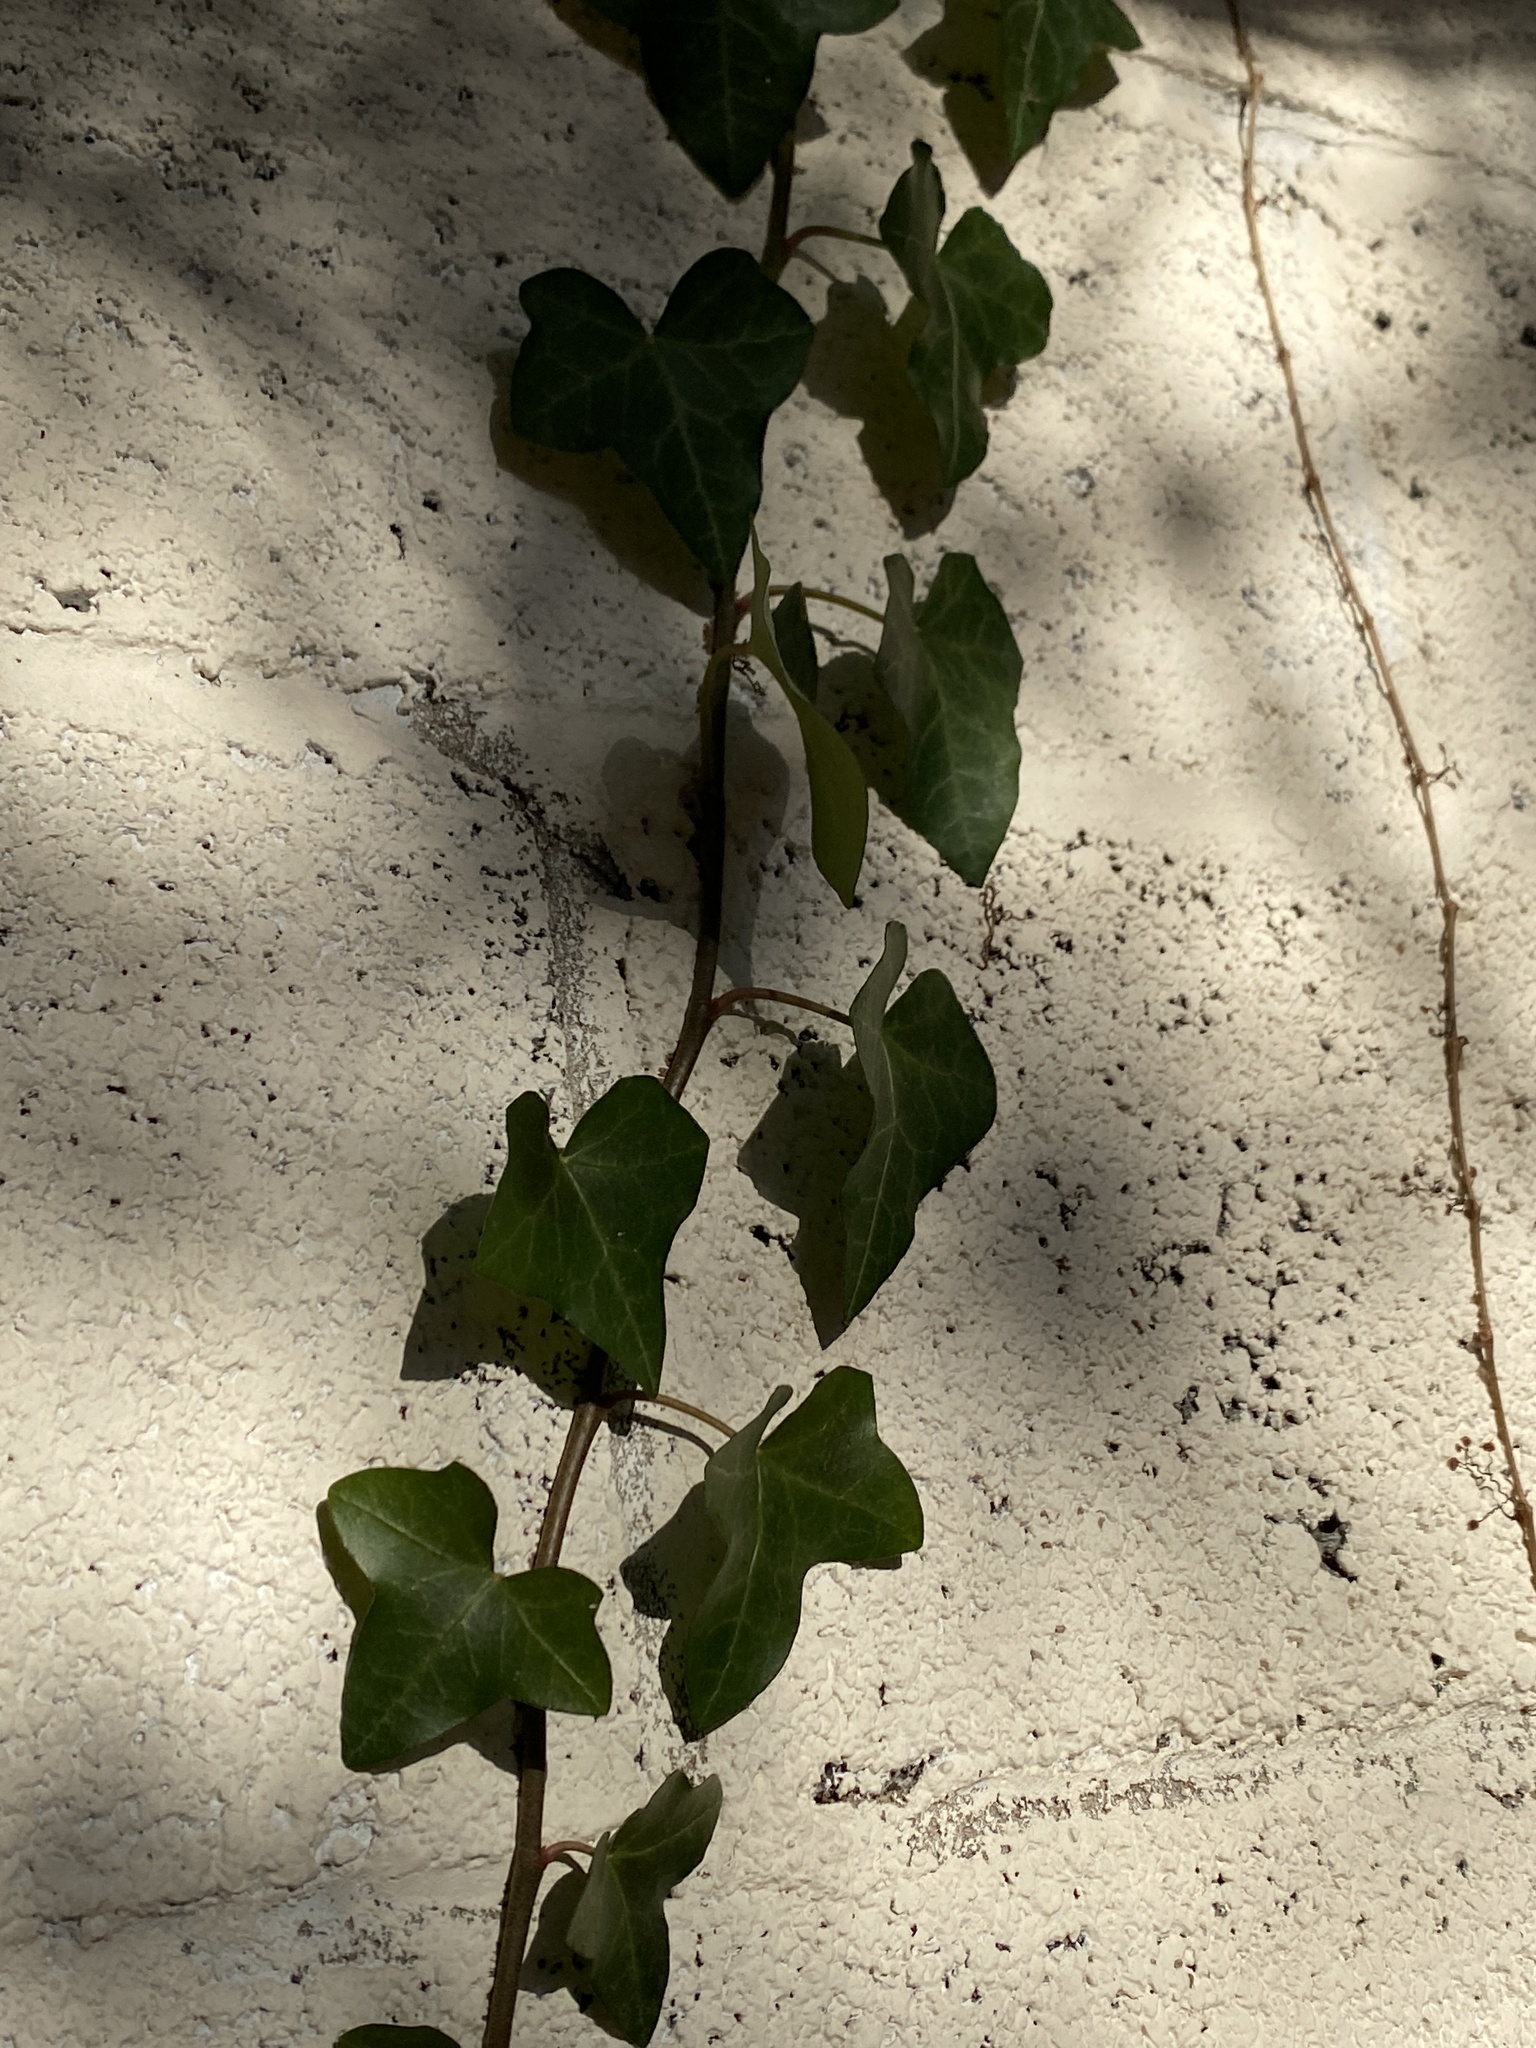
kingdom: Plantae
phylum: Tracheophyta
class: Magnoliopsida
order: Apiales
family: Araliaceae
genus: Hedera
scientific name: Hedera
